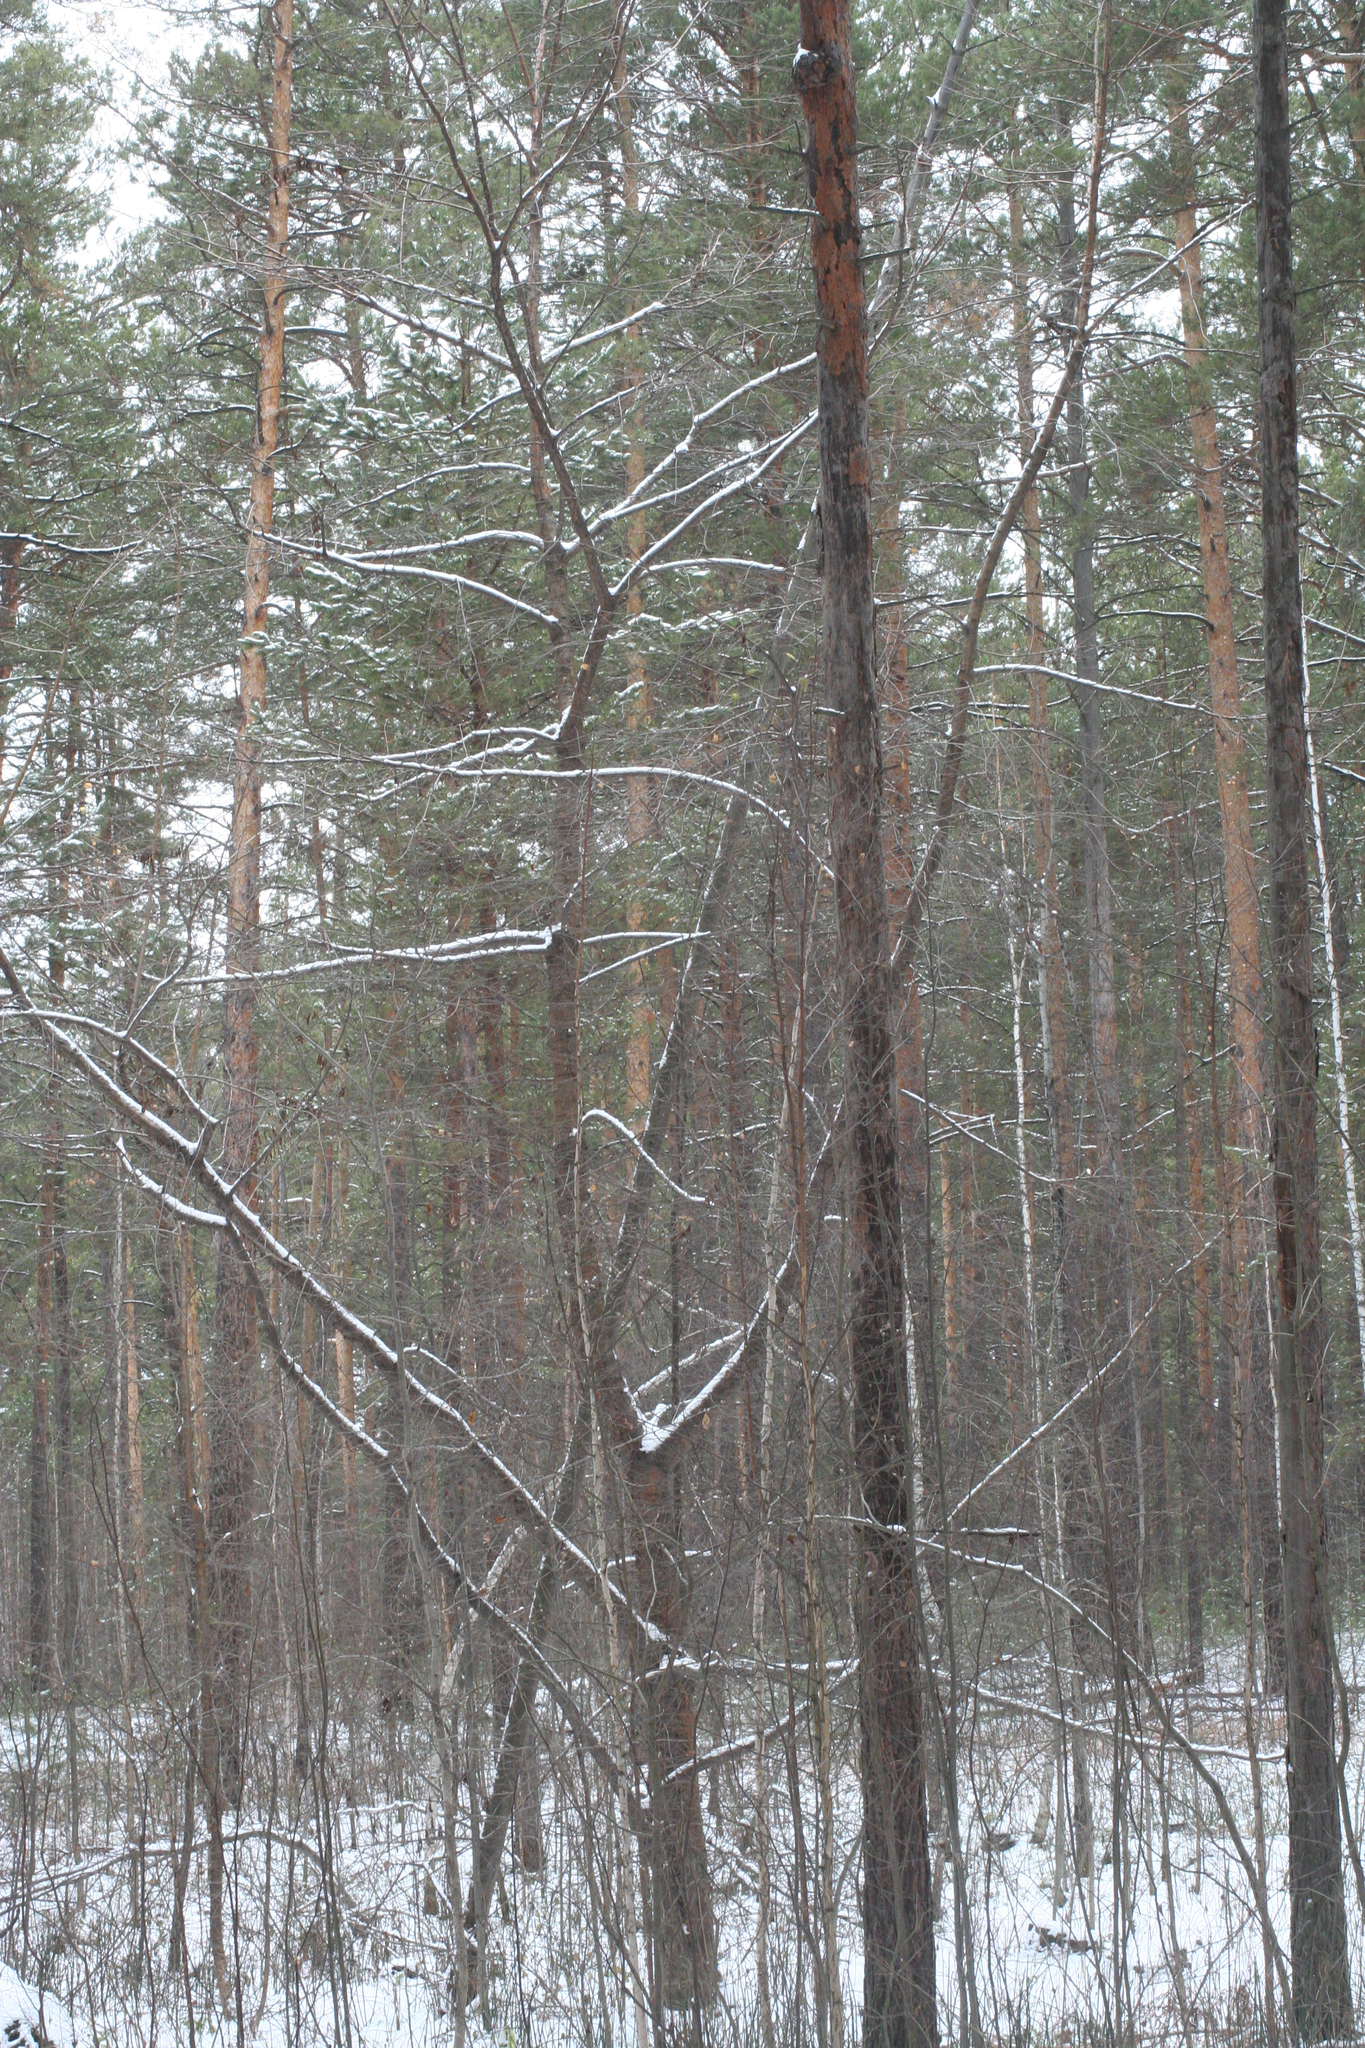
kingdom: Plantae
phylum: Tracheophyta
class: Pinopsida
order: Pinales
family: Pinaceae
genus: Pinus
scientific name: Pinus sylvestris
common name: Scots pine
